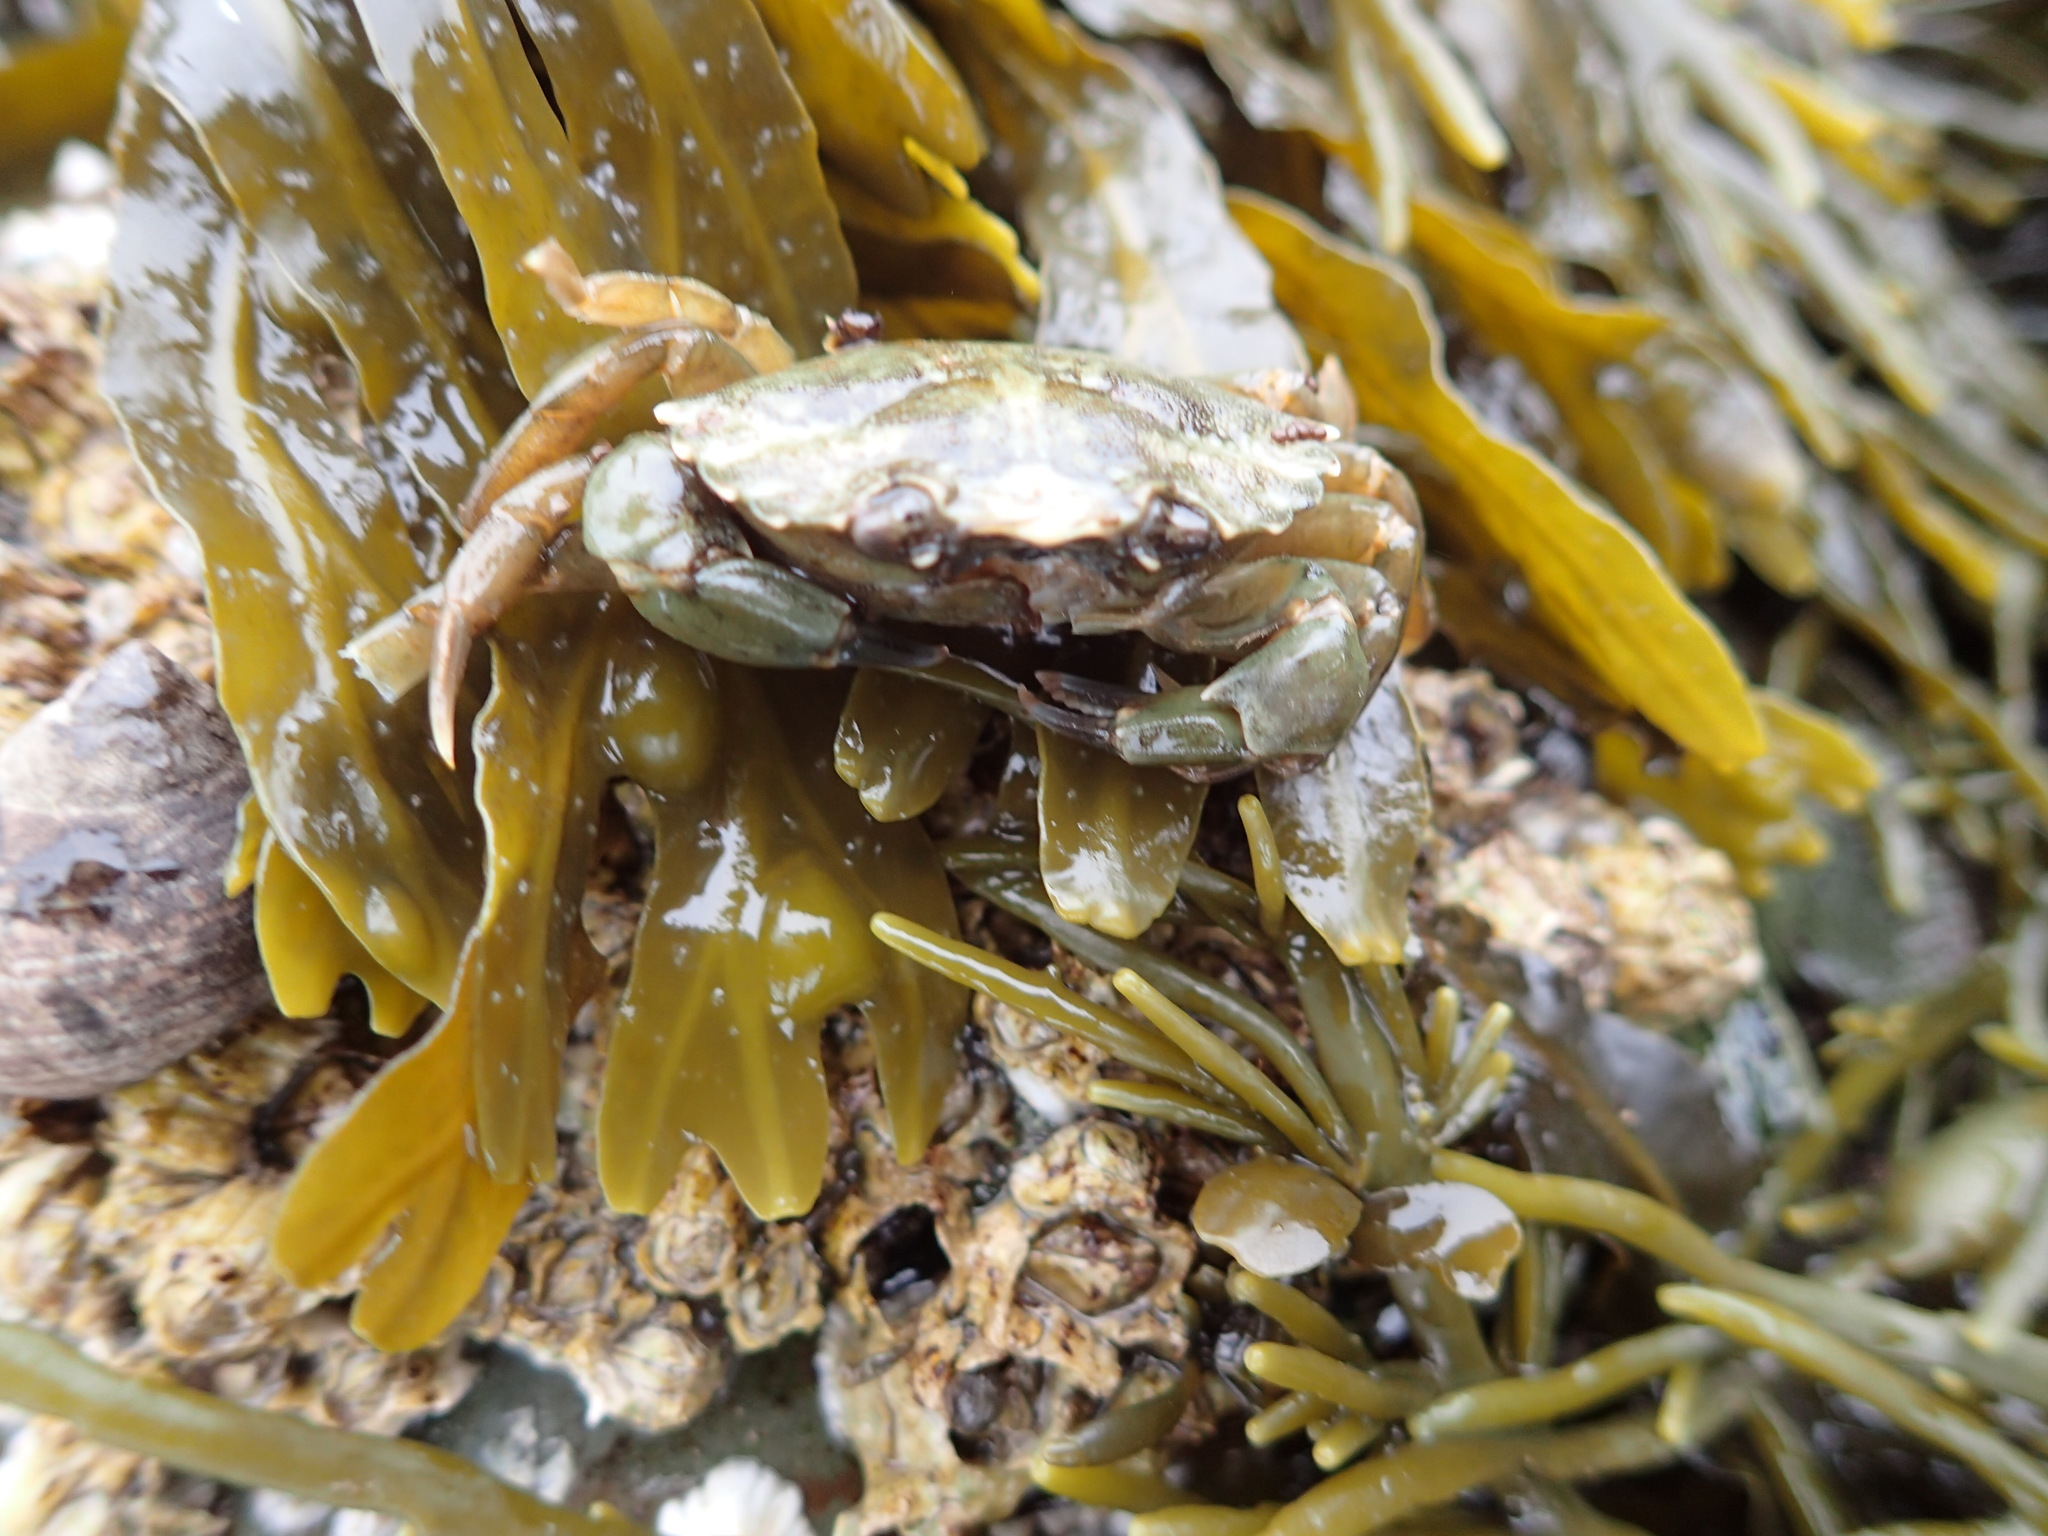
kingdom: Animalia
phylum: Arthropoda
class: Malacostraca
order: Decapoda
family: Carcinidae
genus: Carcinus
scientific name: Carcinus maenas
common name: European green crab
